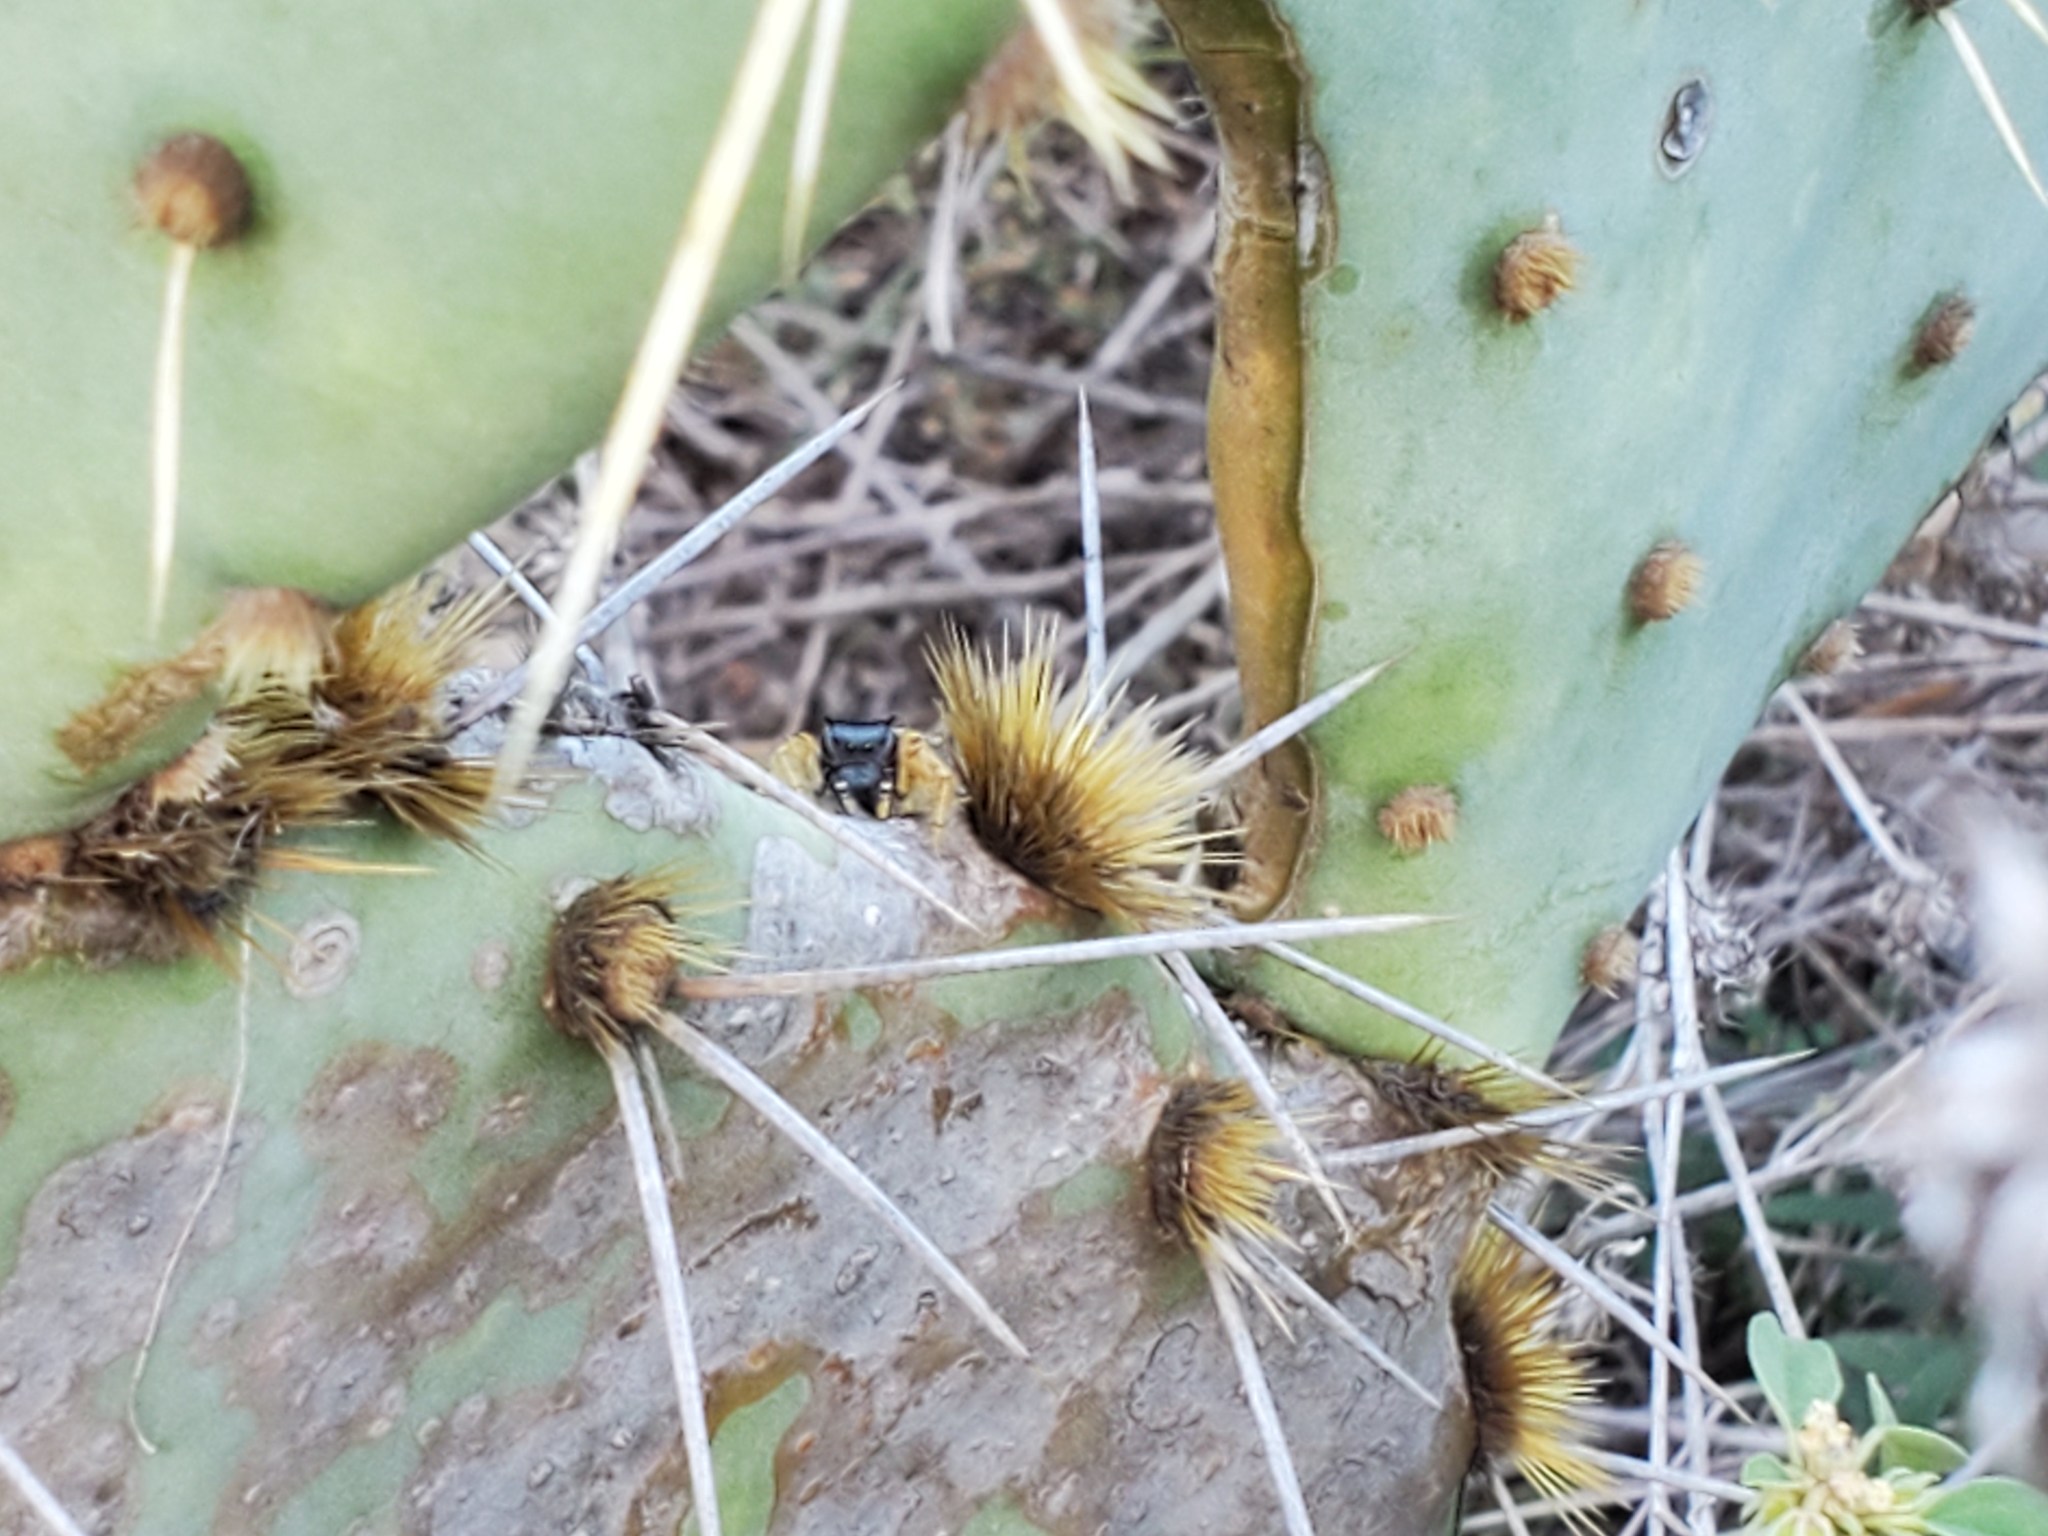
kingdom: Animalia
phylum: Arthropoda
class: Arachnida
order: Araneae
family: Salticidae
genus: Phidippus
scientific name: Phidippus arizonensis
